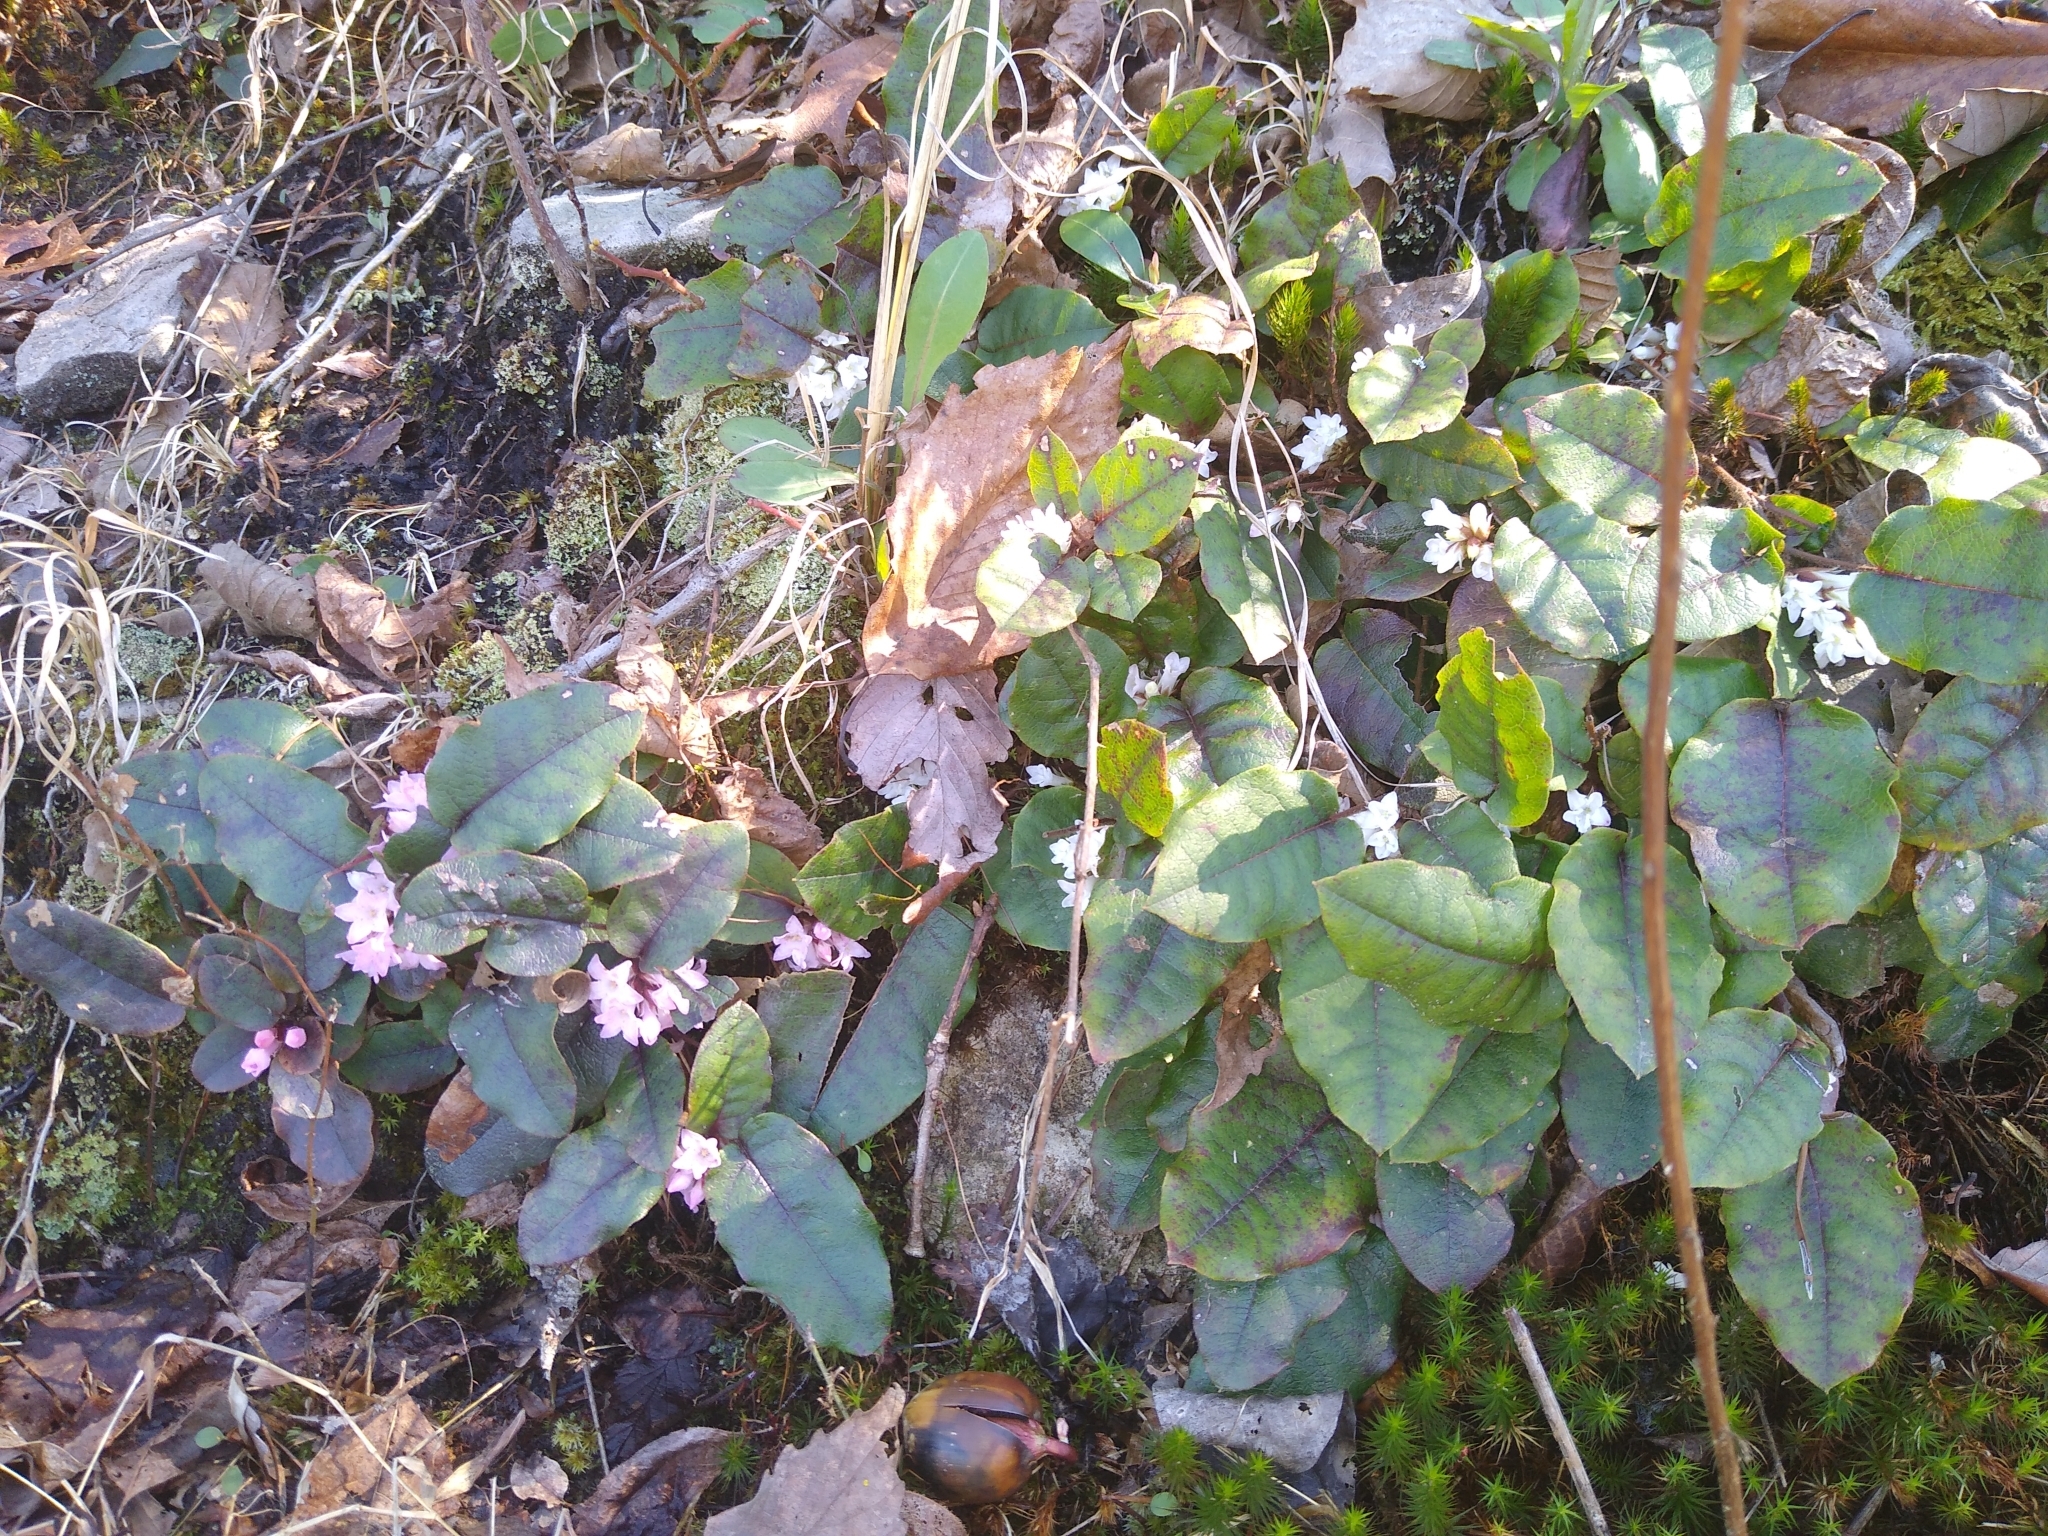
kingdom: Plantae
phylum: Tracheophyta
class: Magnoliopsida
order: Ericales
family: Ericaceae
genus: Epigaea
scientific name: Epigaea repens
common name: Gravelroot
